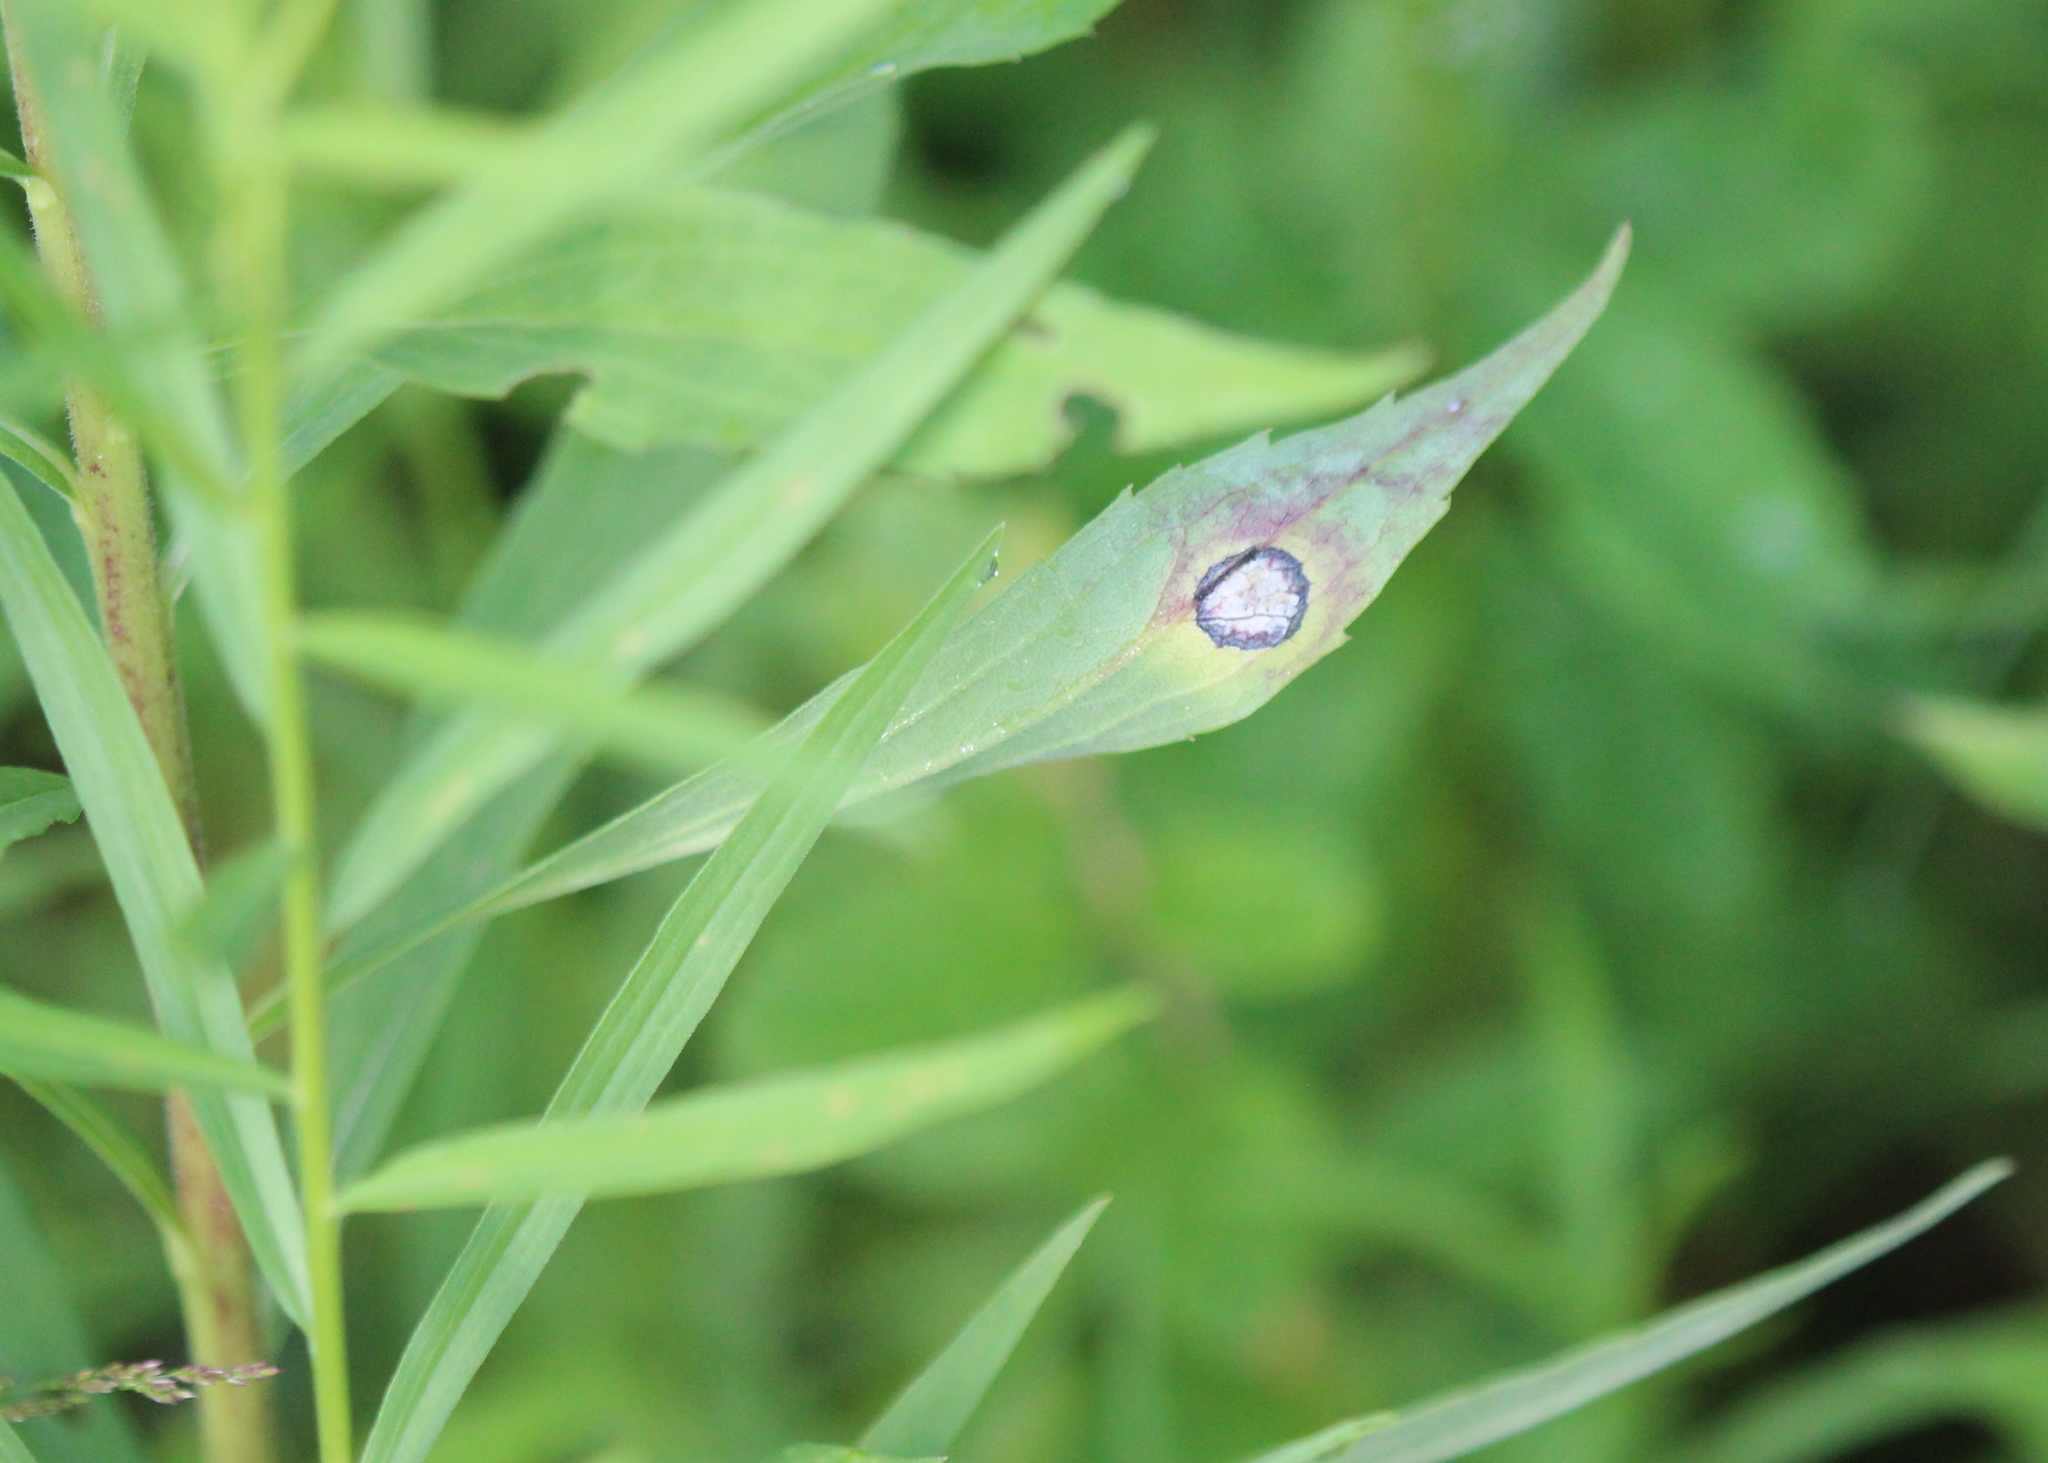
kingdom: Animalia
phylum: Arthropoda
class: Insecta
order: Diptera
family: Cecidomyiidae
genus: Asteromyia
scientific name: Asteromyia carbonifera
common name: Carbonifera goldenrod gall midge
